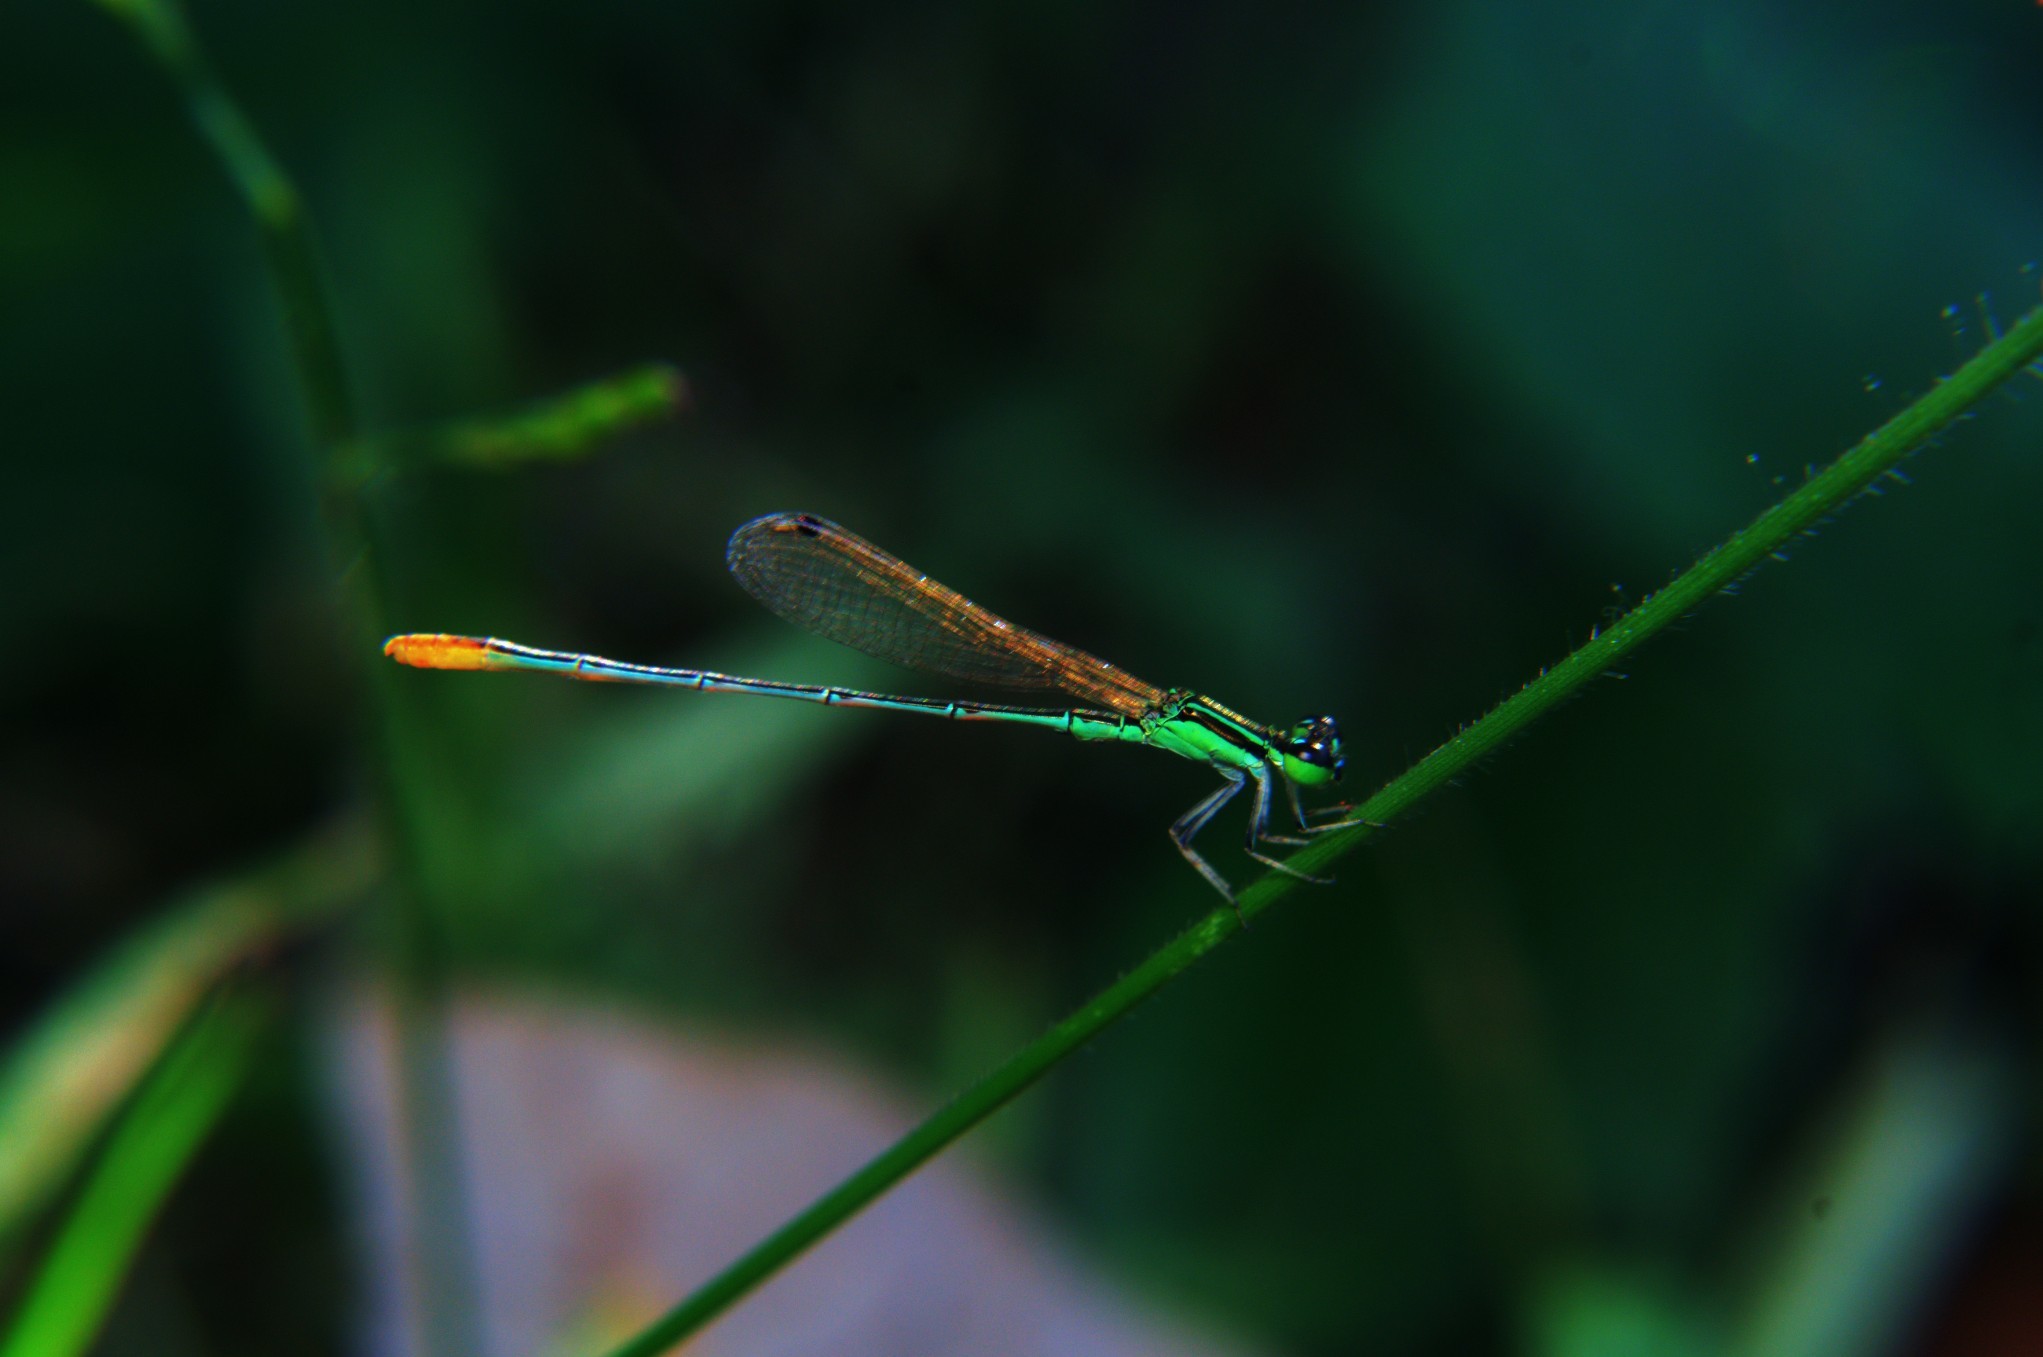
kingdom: Animalia
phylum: Arthropoda
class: Insecta
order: Odonata
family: Coenagrionidae
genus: Agriocnemis
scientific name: Agriocnemis pygmaea
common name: Pygmy wisp
